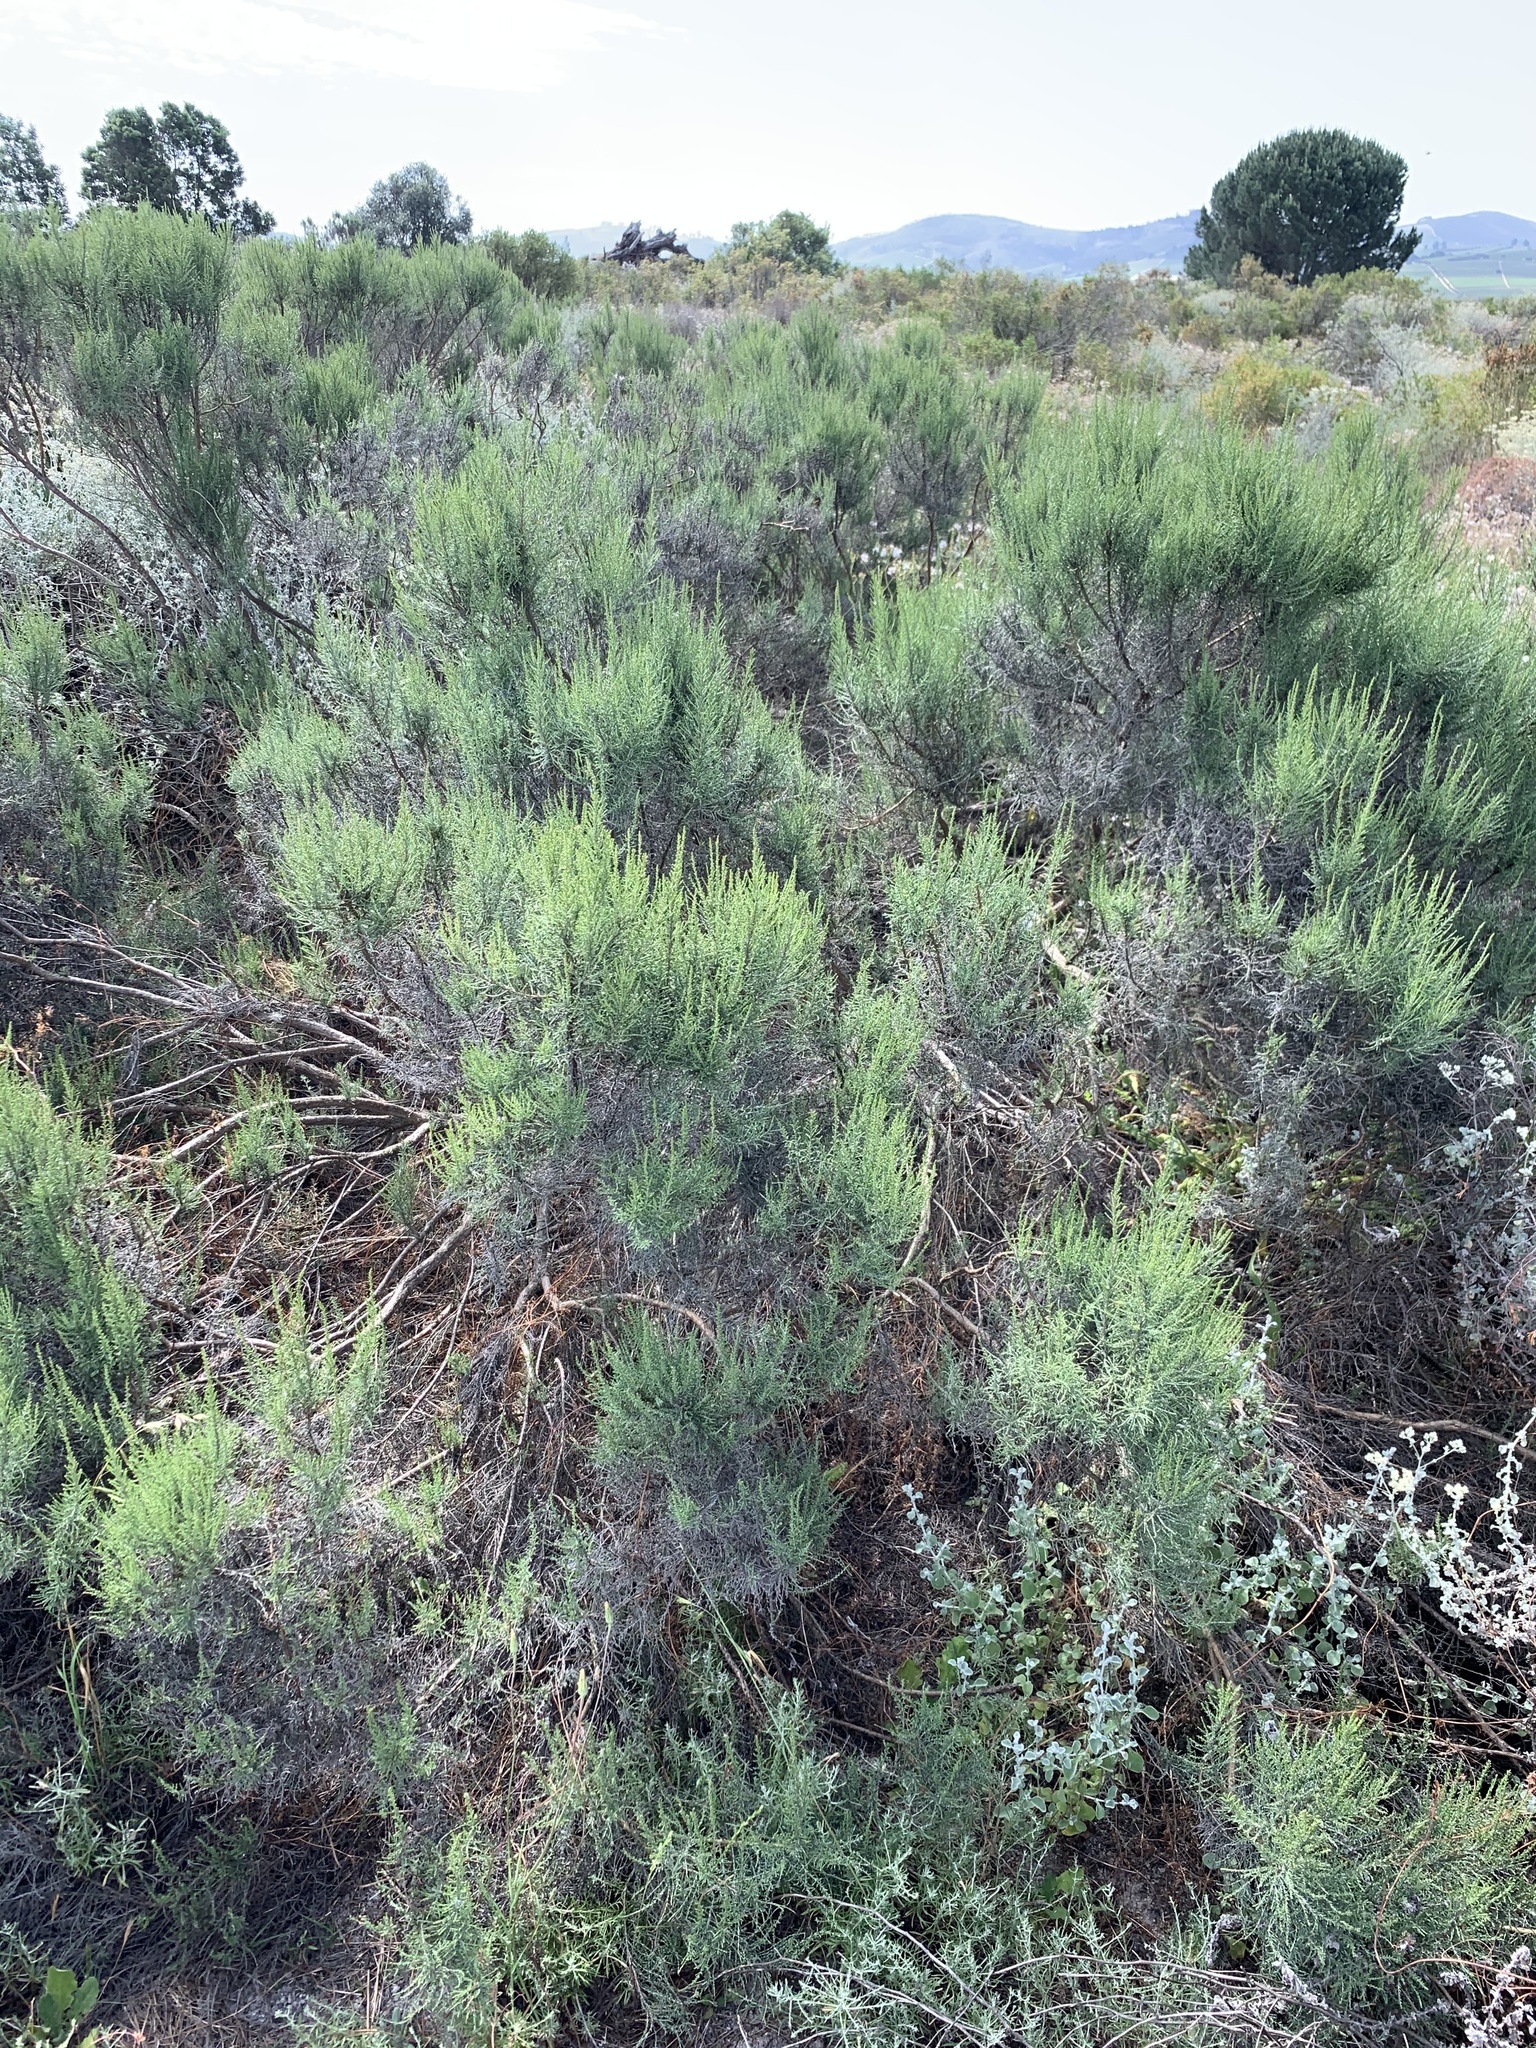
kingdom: Plantae
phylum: Tracheophyta
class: Magnoliopsida
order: Asterales
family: Asteraceae
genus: Dicerothamnus
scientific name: Dicerothamnus rhinocerotis
